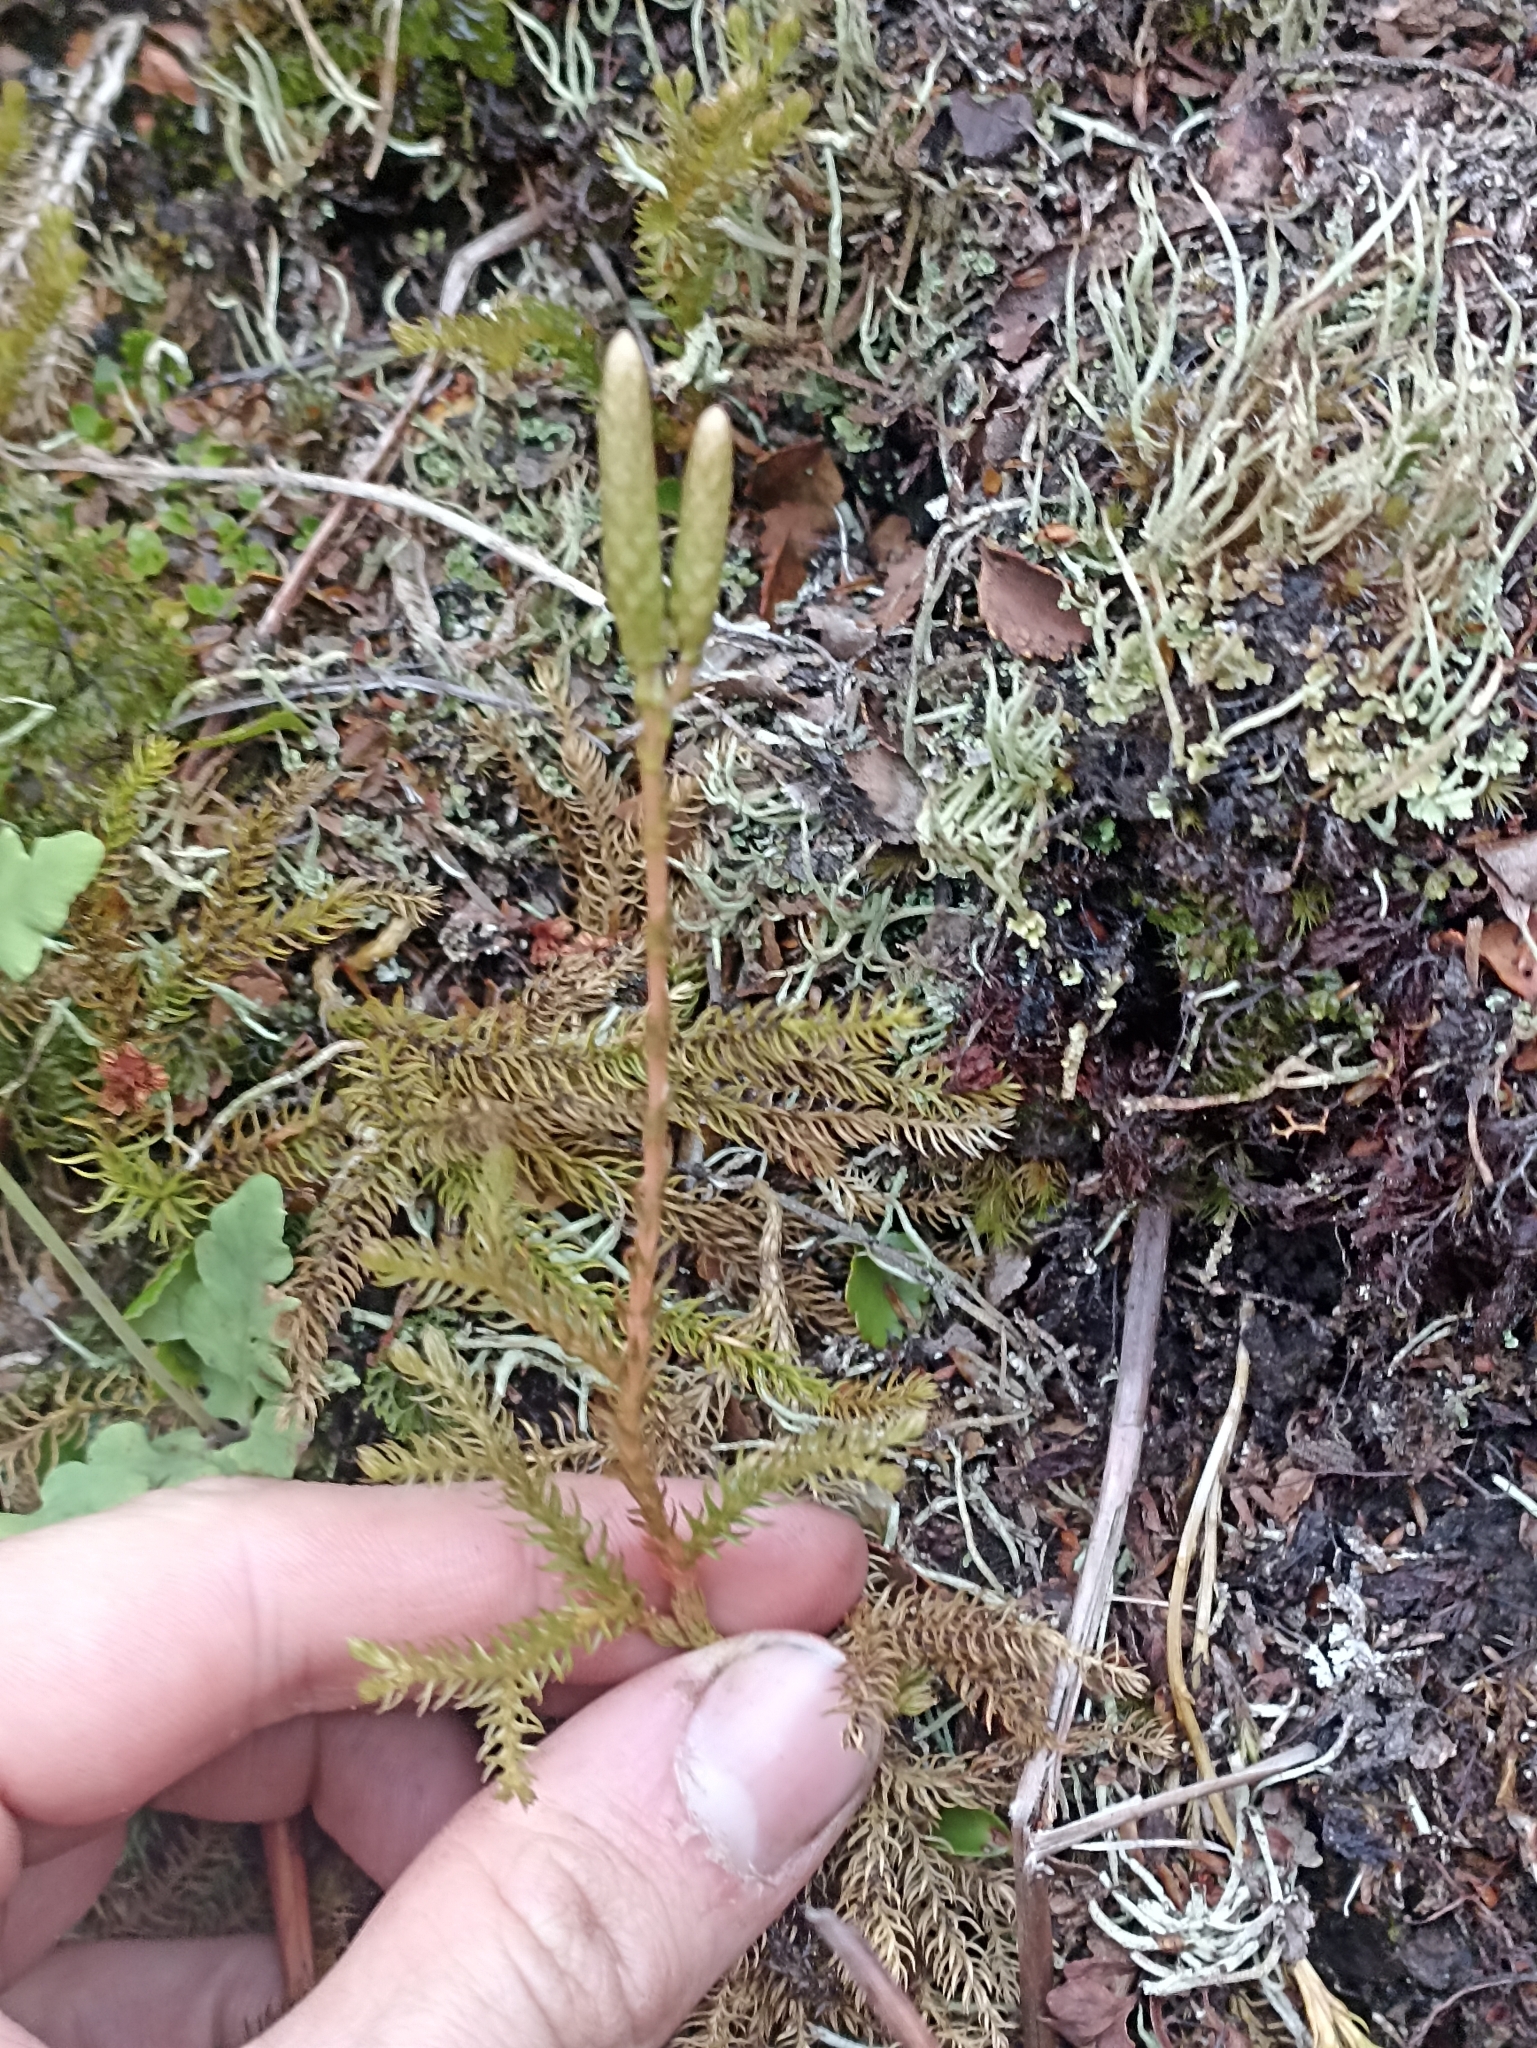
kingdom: Plantae
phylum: Tracheophyta
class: Lycopodiopsida
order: Lycopodiales
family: Lycopodiaceae
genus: Austrolycopodium
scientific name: Austrolycopodium fastigiatum
